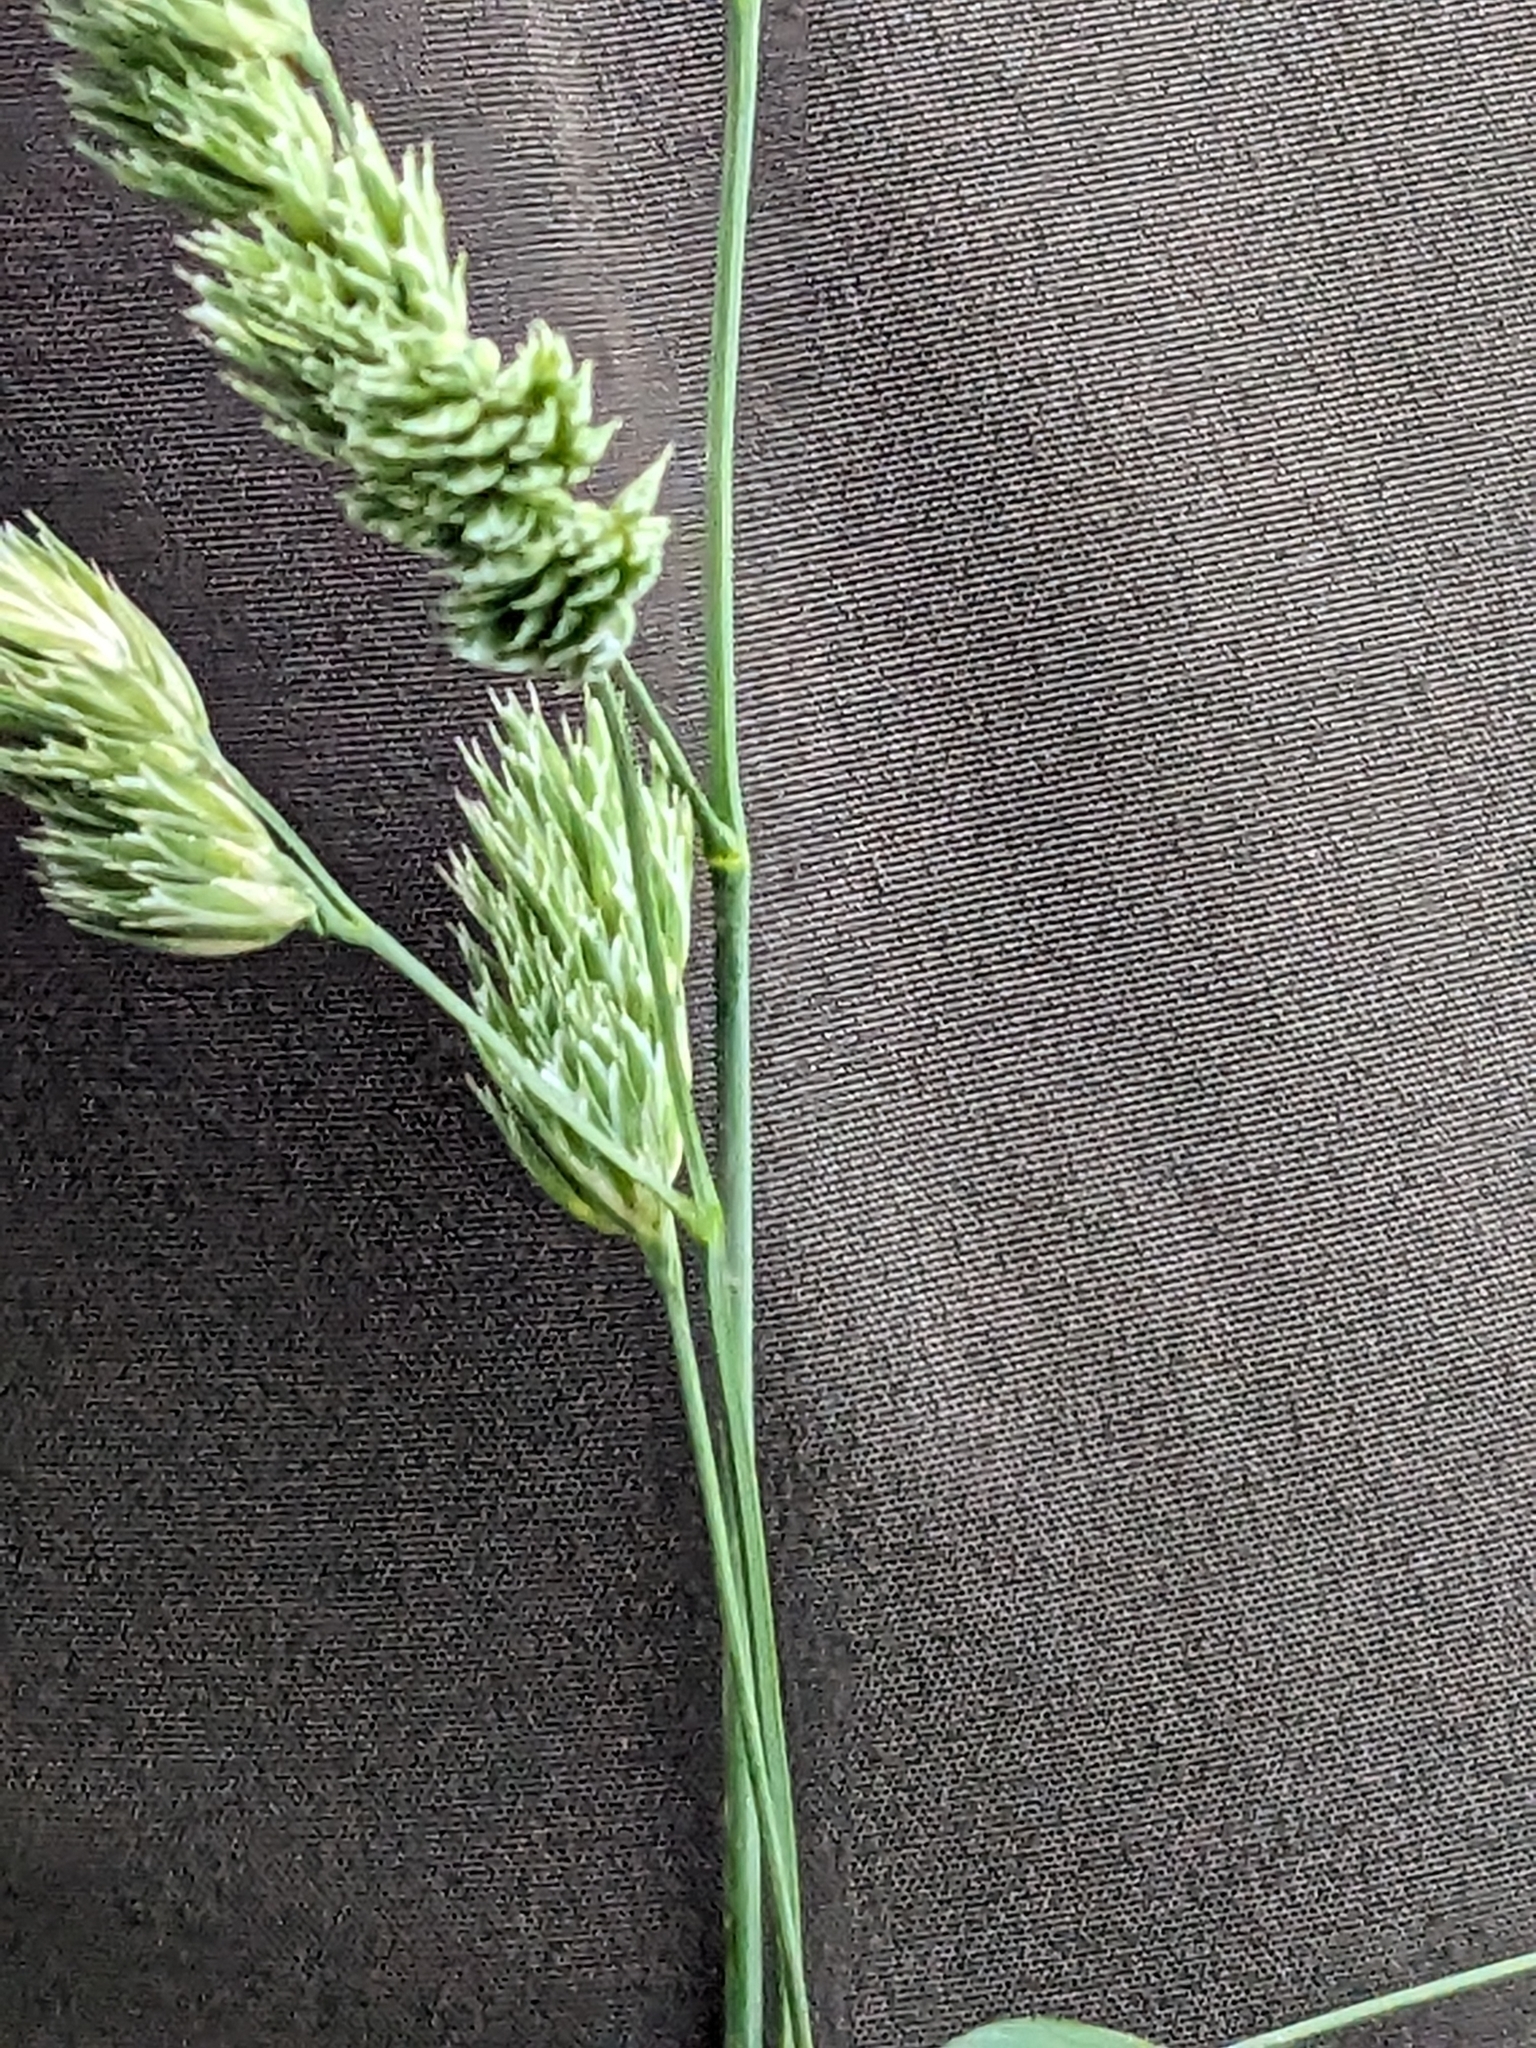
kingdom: Plantae
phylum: Tracheophyta
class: Liliopsida
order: Poales
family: Poaceae
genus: Dactylis
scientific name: Dactylis glomerata
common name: Orchardgrass
